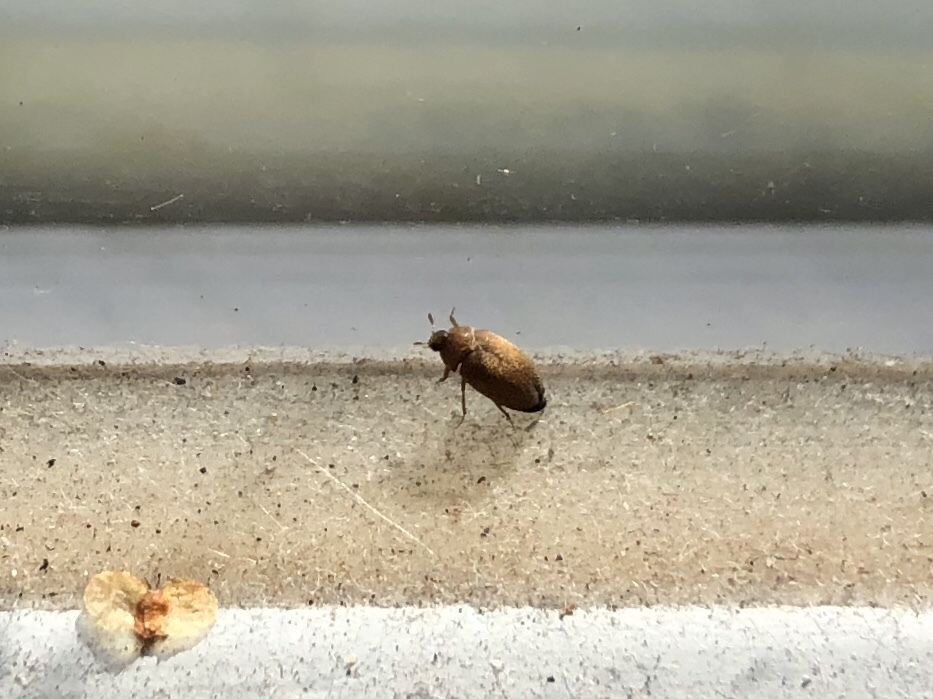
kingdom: Animalia
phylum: Arthropoda
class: Insecta
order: Coleoptera
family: Dermestidae
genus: Attagenus
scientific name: Attagenus smirnovi
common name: Brown carpet beetle
